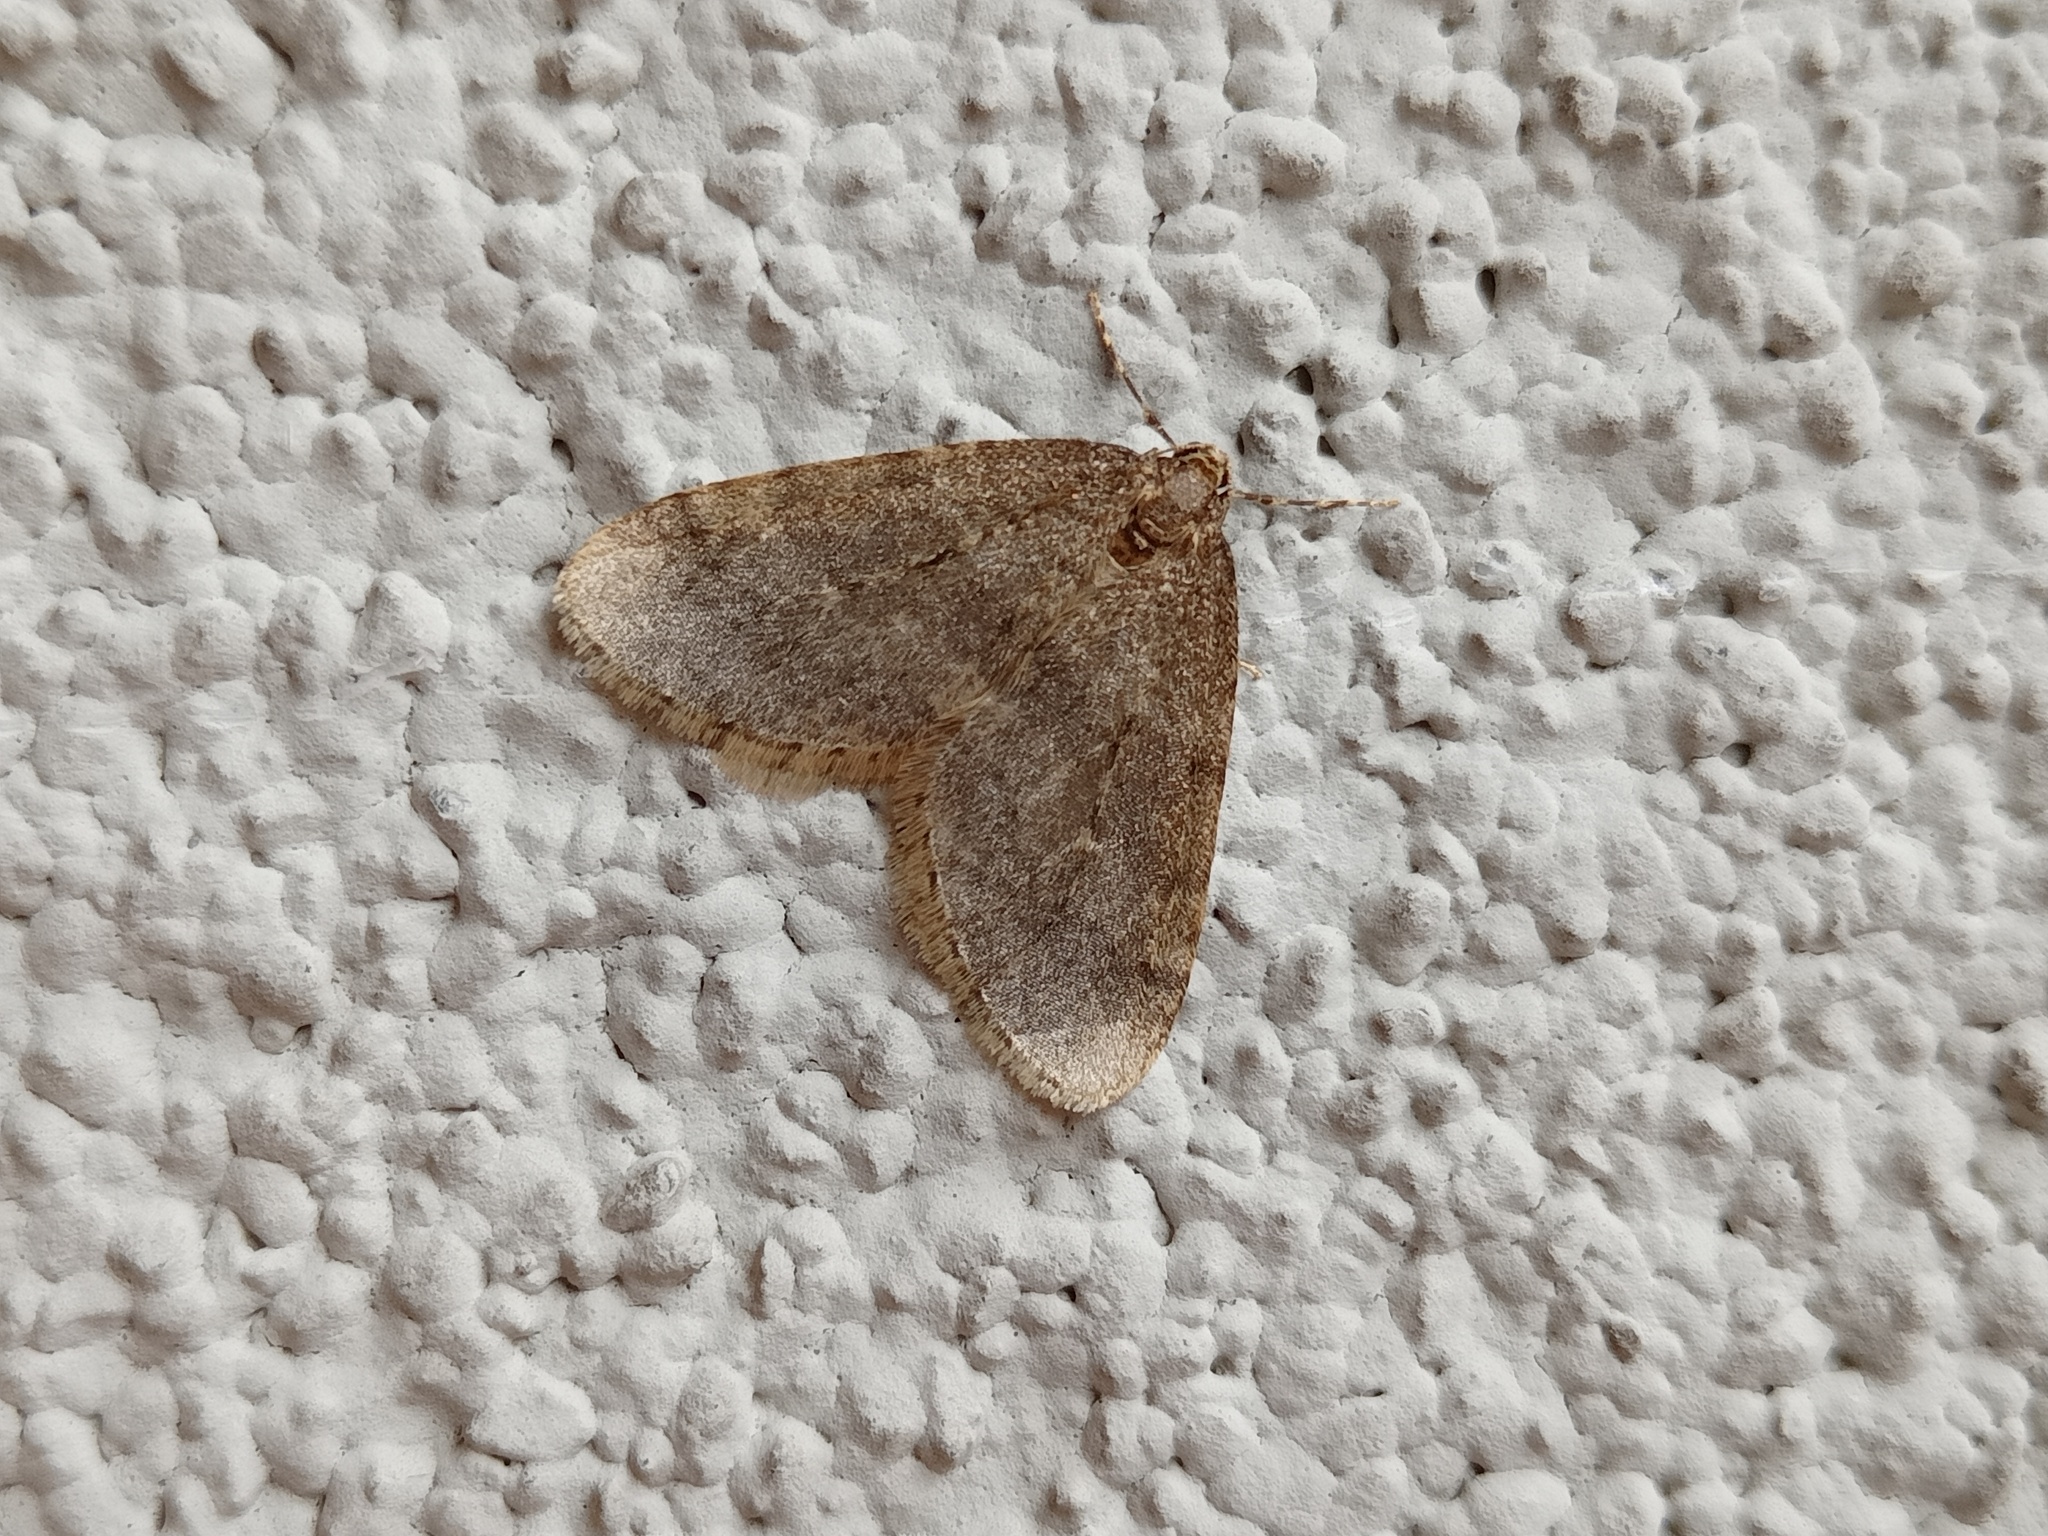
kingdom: Animalia
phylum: Arthropoda
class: Insecta
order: Lepidoptera
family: Geometridae
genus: Operophtera
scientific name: Operophtera brumata
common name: Winter moth
